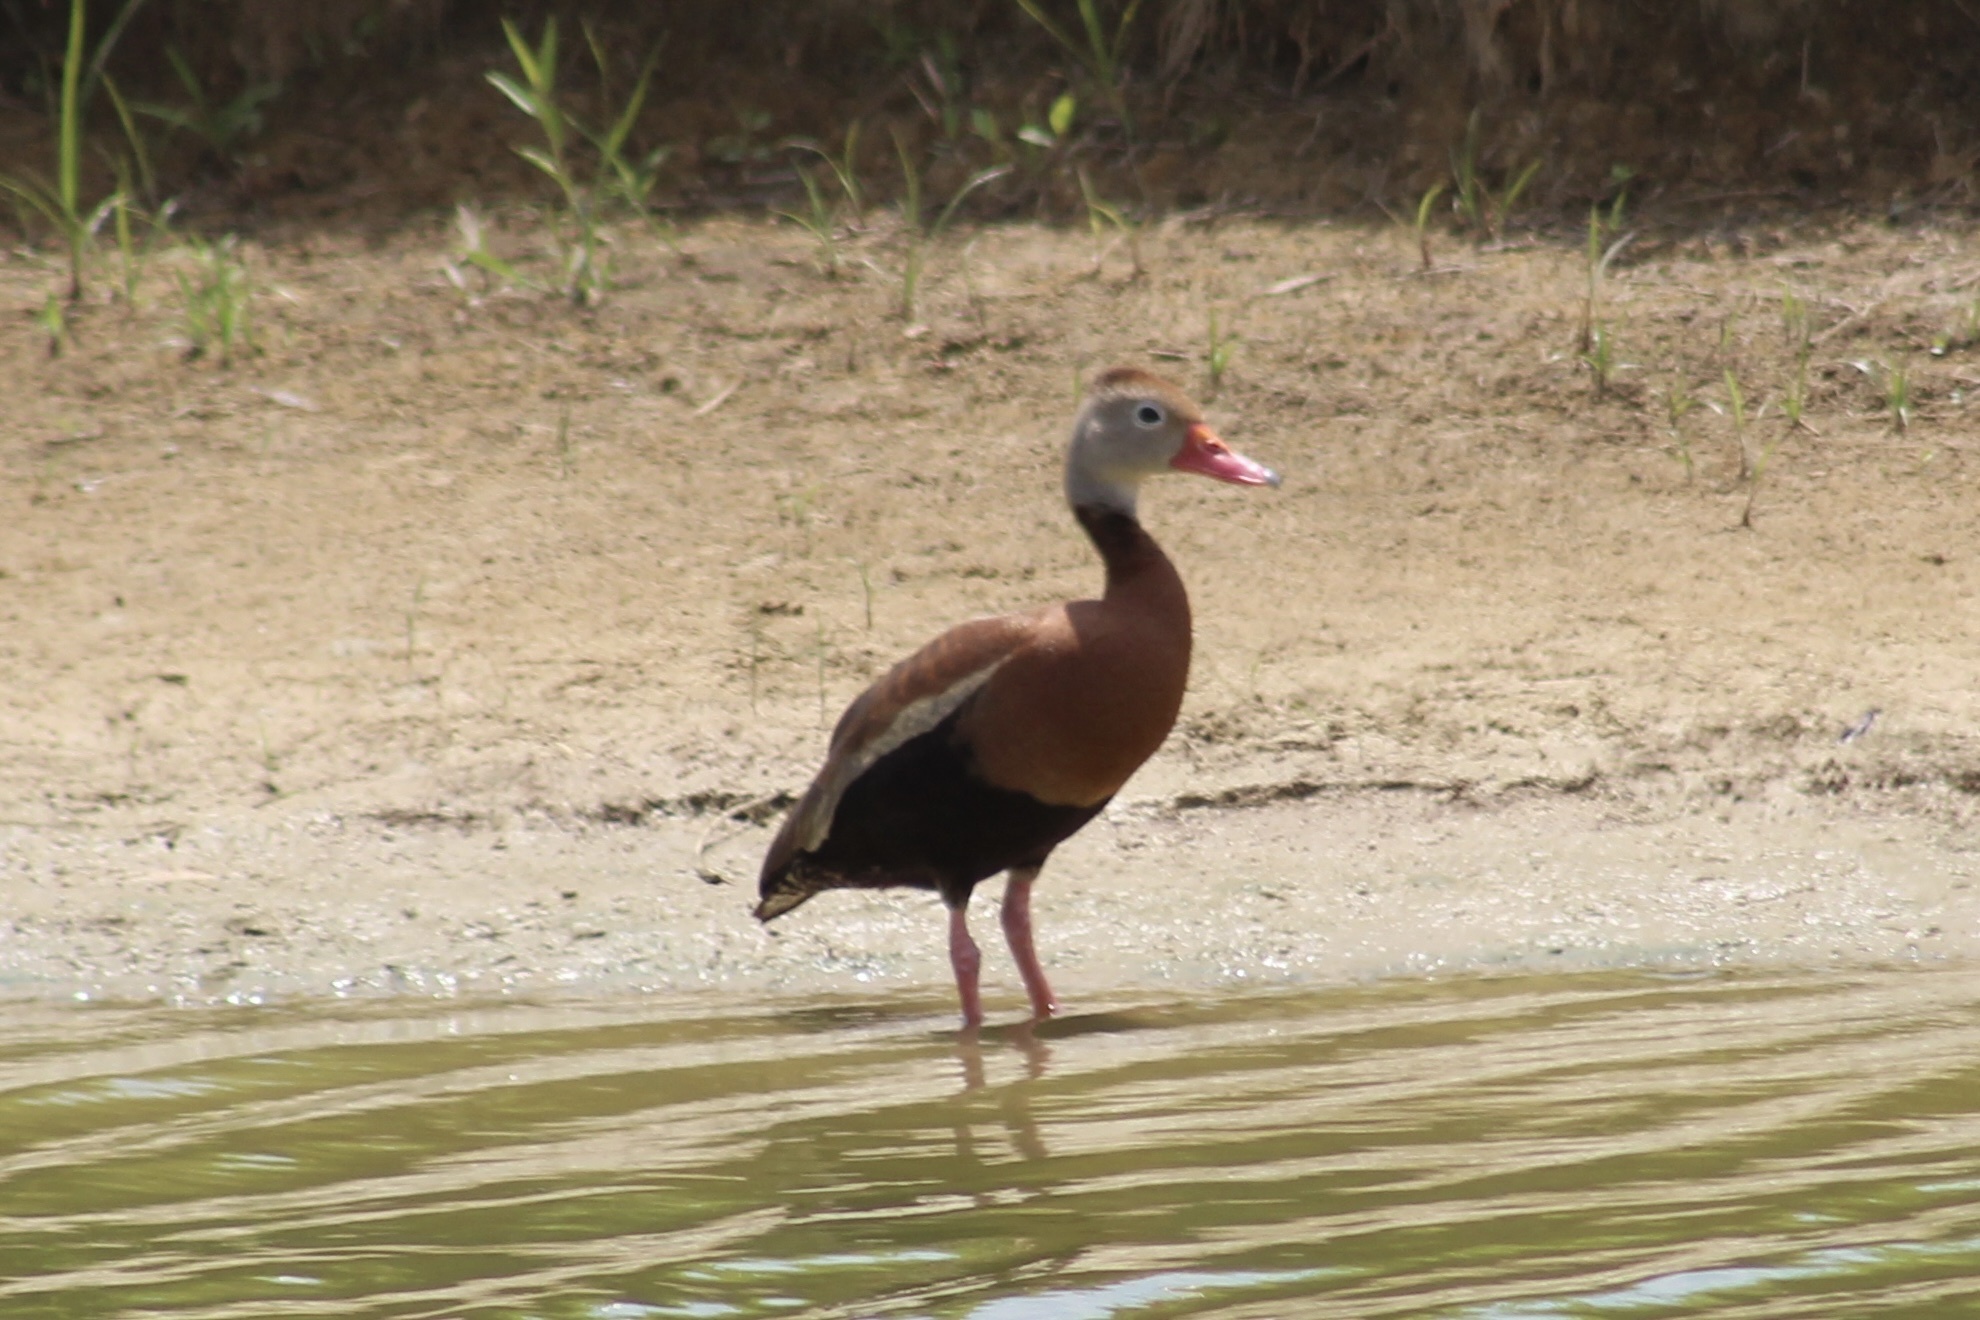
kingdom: Animalia
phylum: Chordata
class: Aves
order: Anseriformes
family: Anatidae
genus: Dendrocygna
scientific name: Dendrocygna autumnalis
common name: Black-bellied whistling duck
